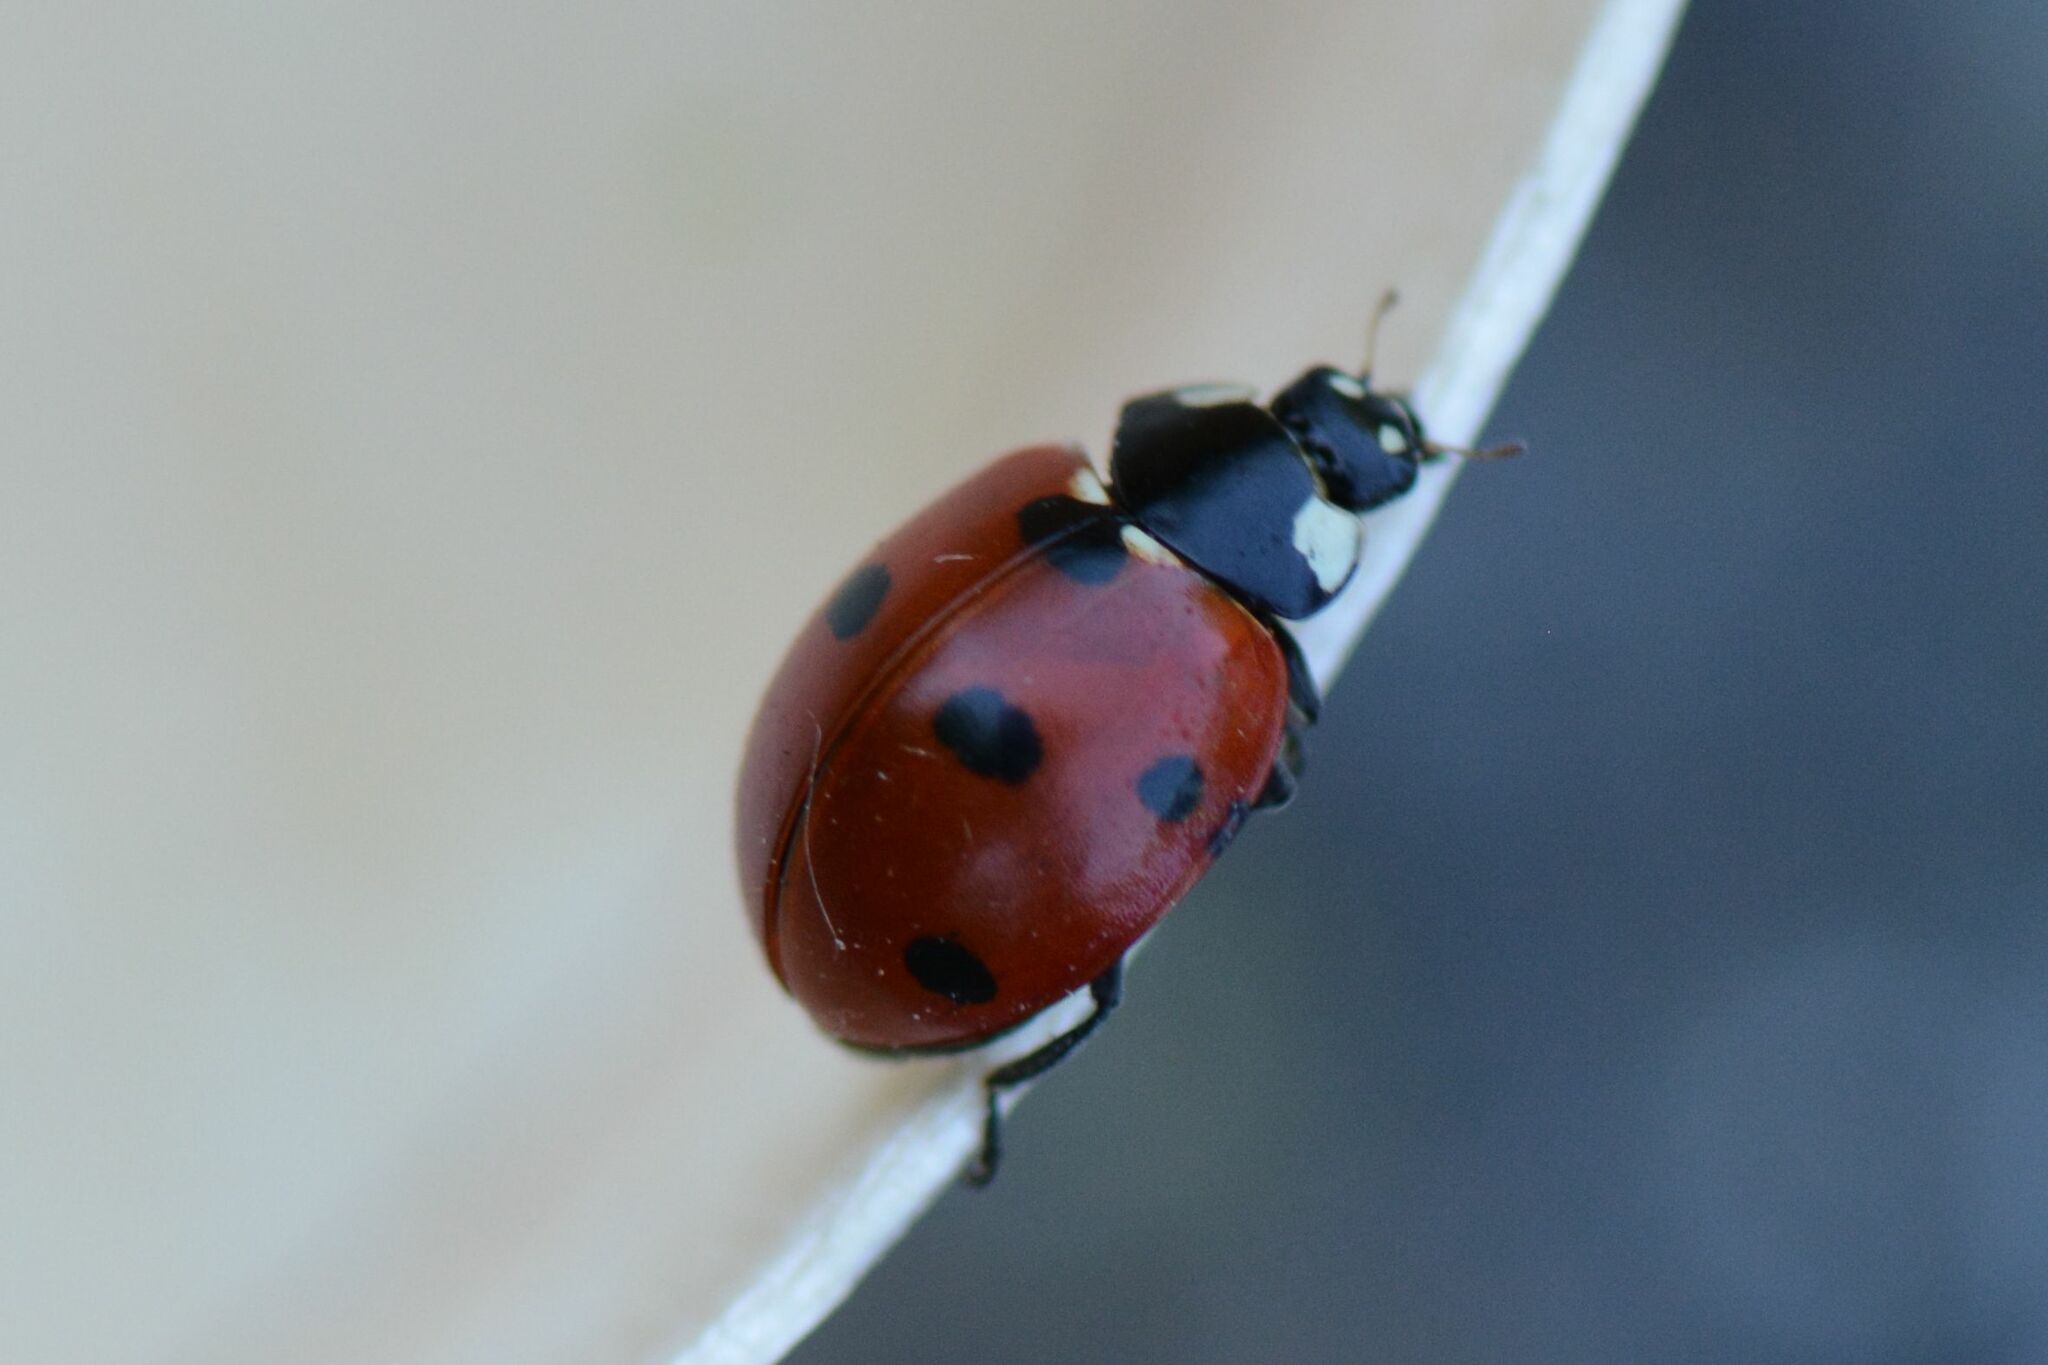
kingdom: Animalia
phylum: Arthropoda
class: Insecta
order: Coleoptera
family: Coccinellidae
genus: Coccinella
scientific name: Coccinella septempunctata
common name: Sevenspotted lady beetle
